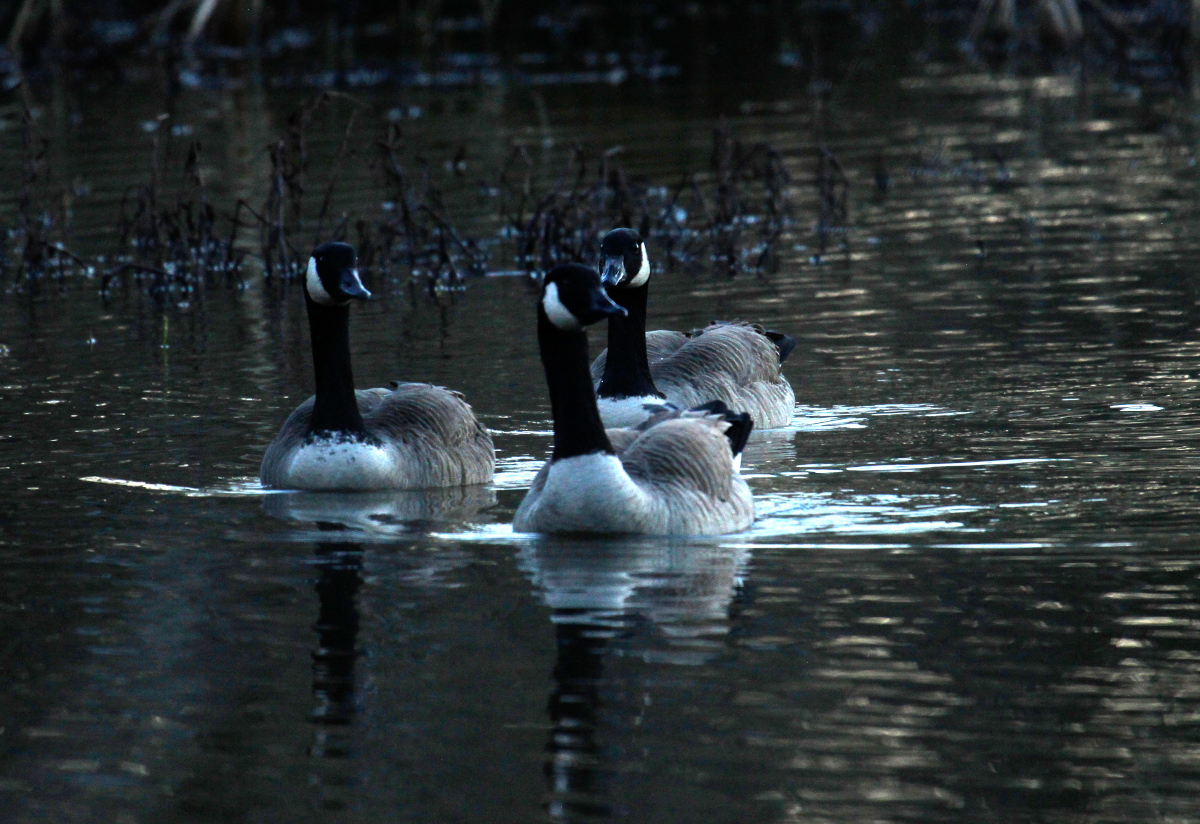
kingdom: Animalia
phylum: Chordata
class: Aves
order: Anseriformes
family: Anatidae
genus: Branta
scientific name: Branta canadensis
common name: Canada goose
